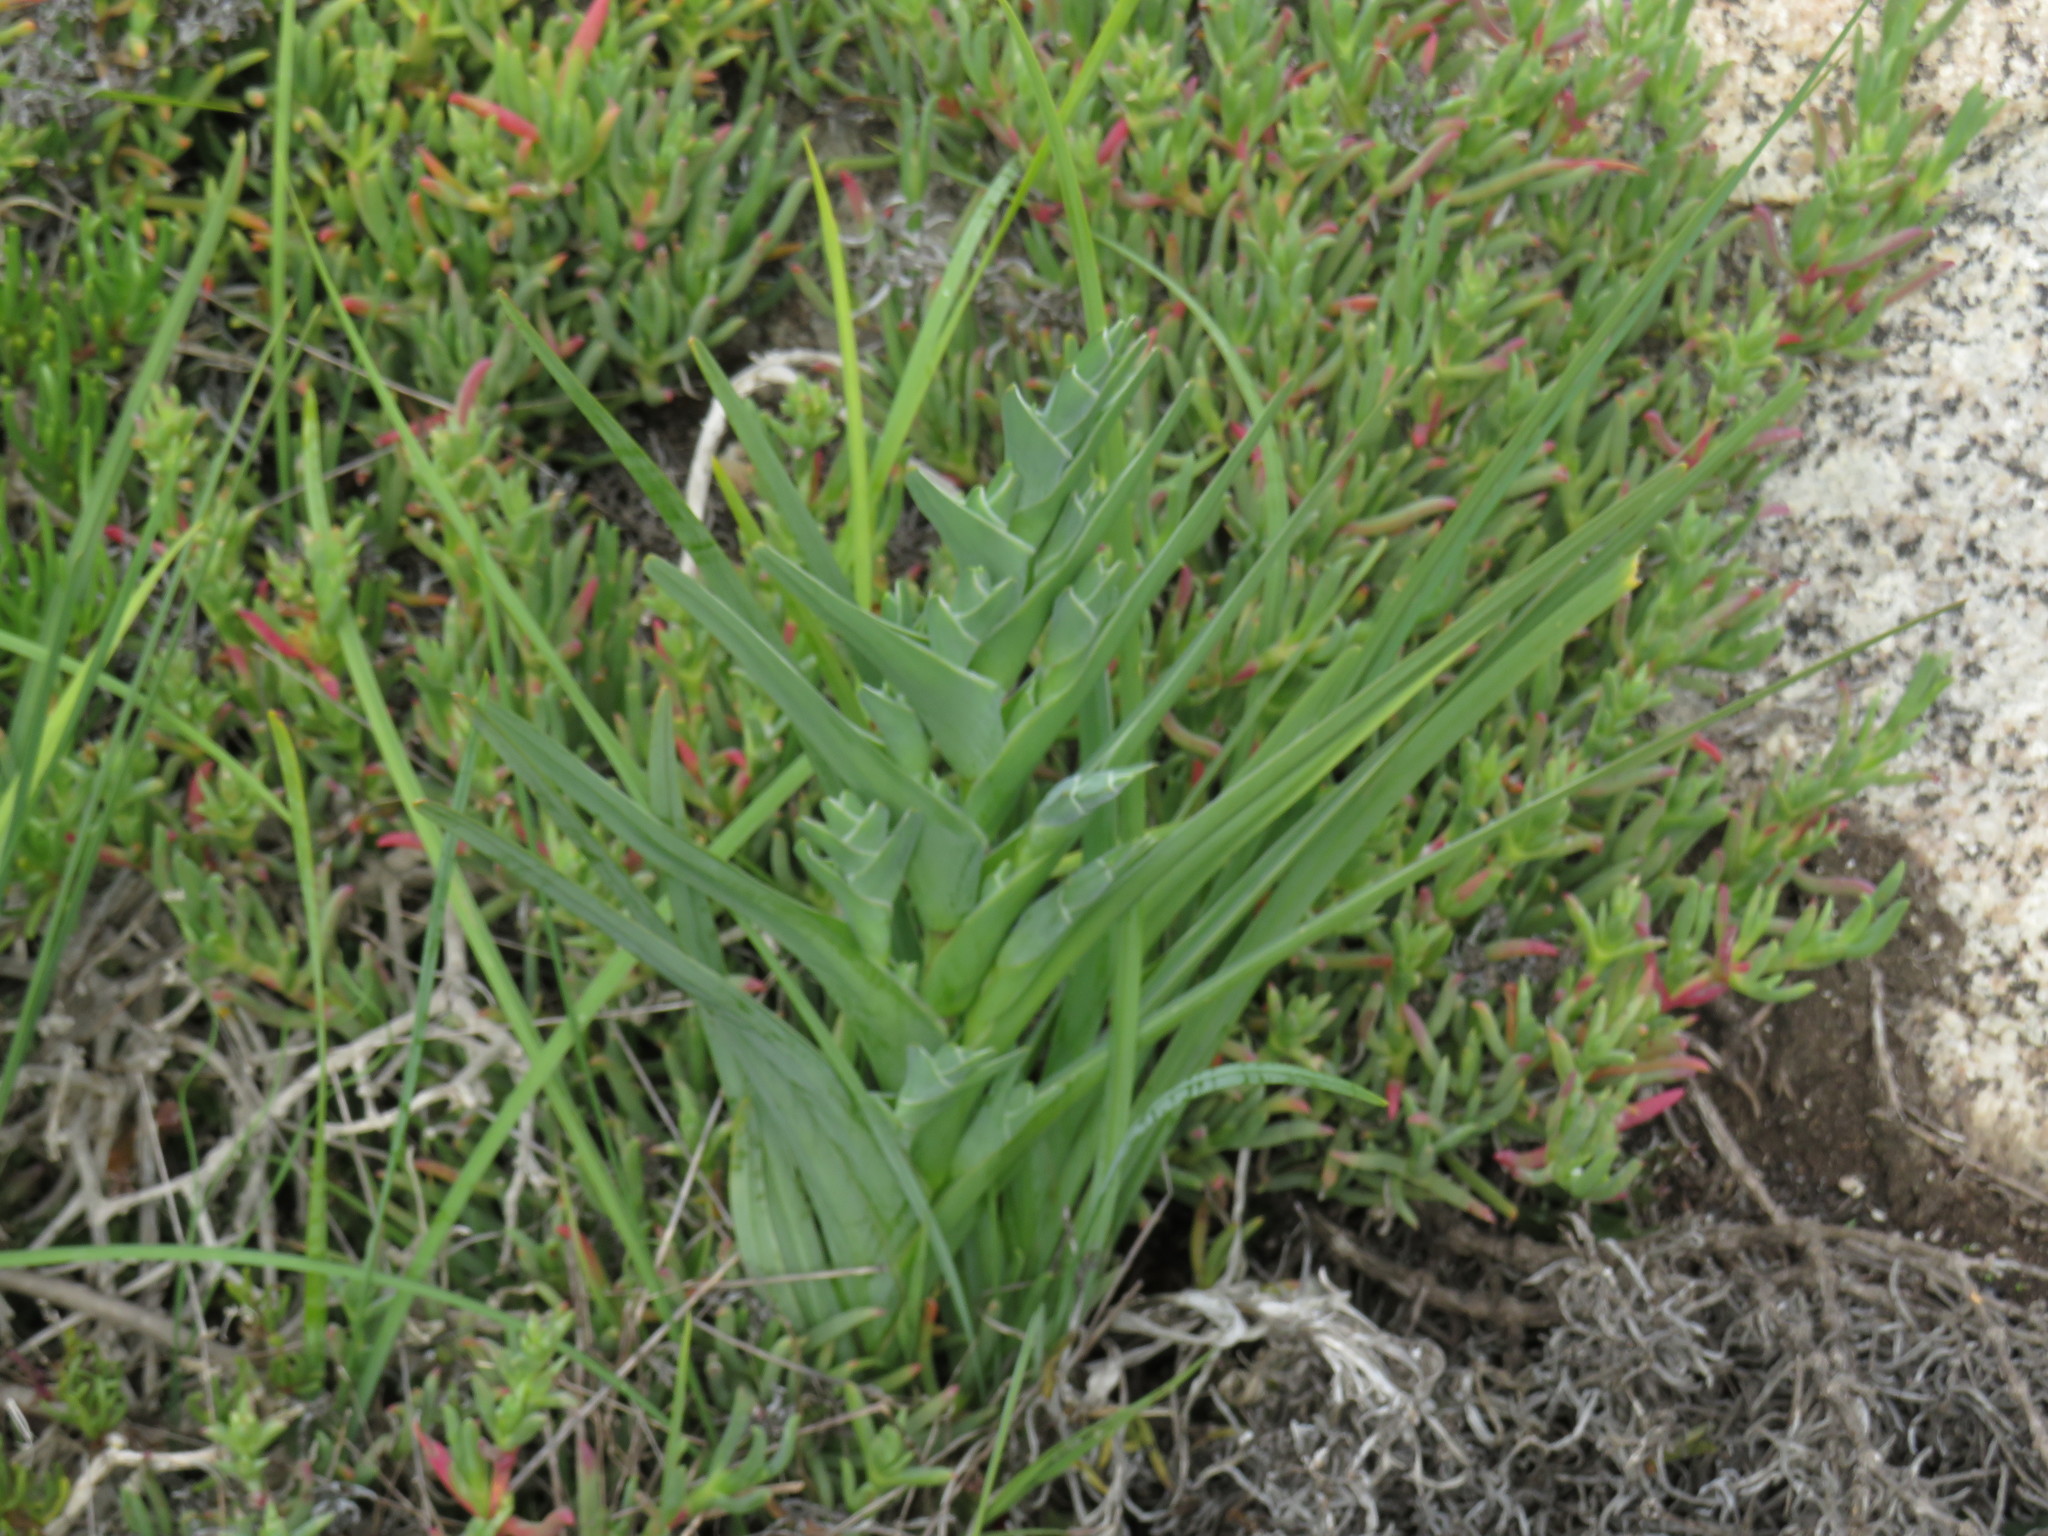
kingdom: Plantae
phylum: Tracheophyta
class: Liliopsida
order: Asparagales
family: Iridaceae
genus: Ferraria
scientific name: Ferraria crispa
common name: Black-flag
